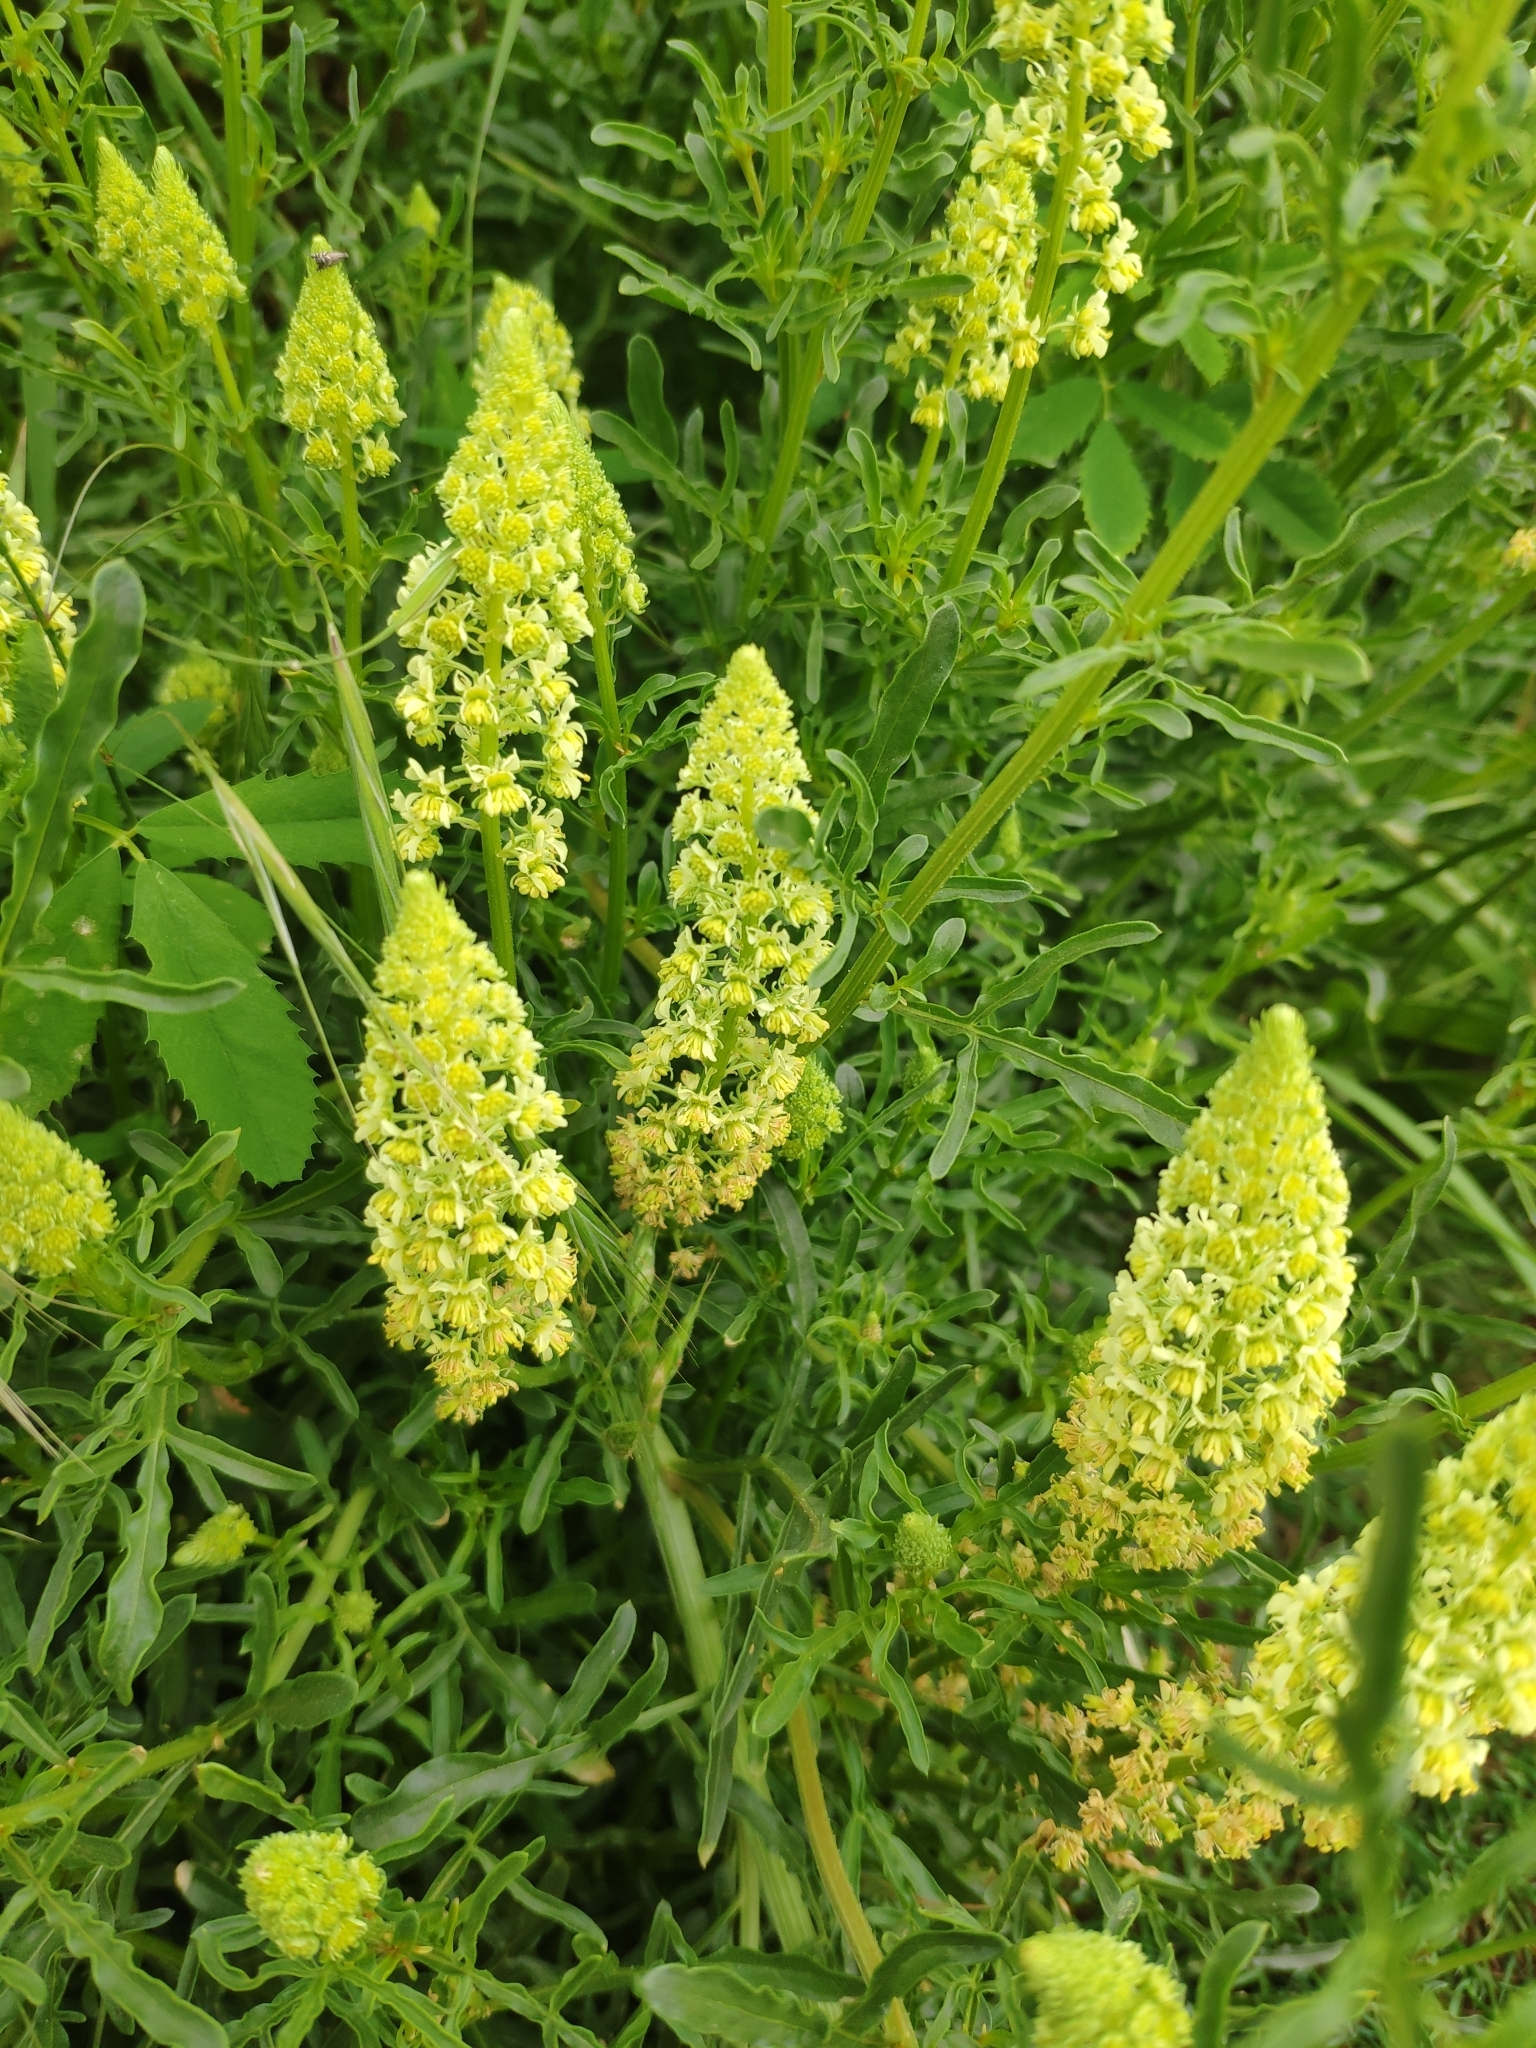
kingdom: Plantae
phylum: Tracheophyta
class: Magnoliopsida
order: Brassicales
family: Resedaceae
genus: Reseda
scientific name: Reseda lutea
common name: Wild mignonette
